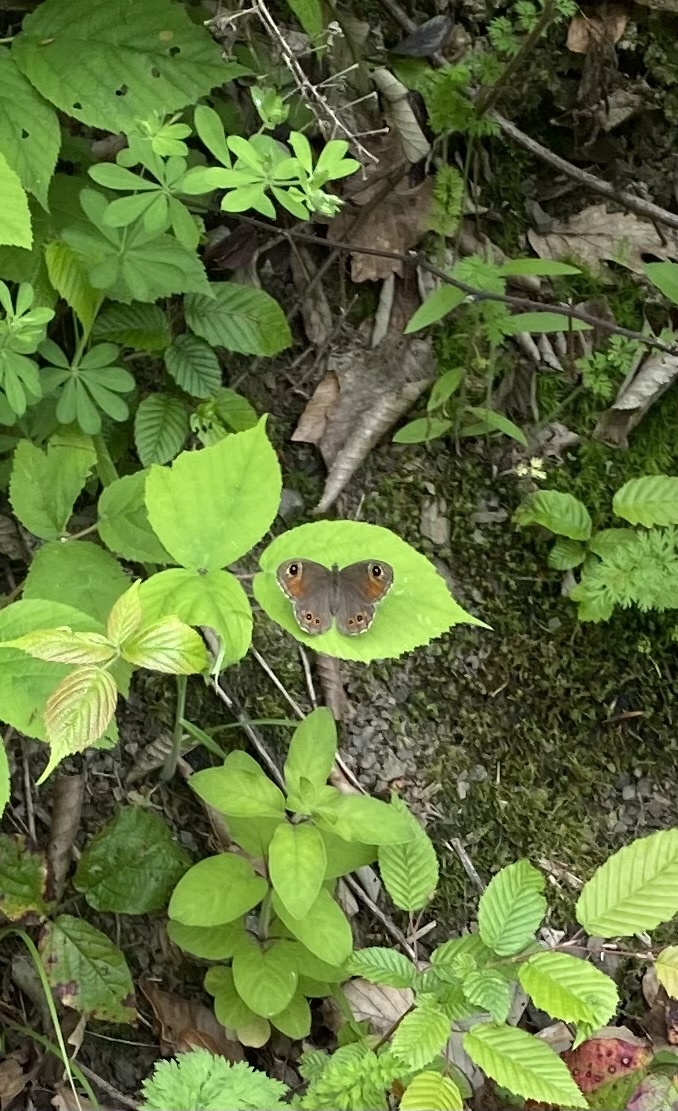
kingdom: Animalia
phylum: Arthropoda
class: Insecta
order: Lepidoptera
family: Nymphalidae
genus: Pararge
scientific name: Pararge Lasiommata maera
